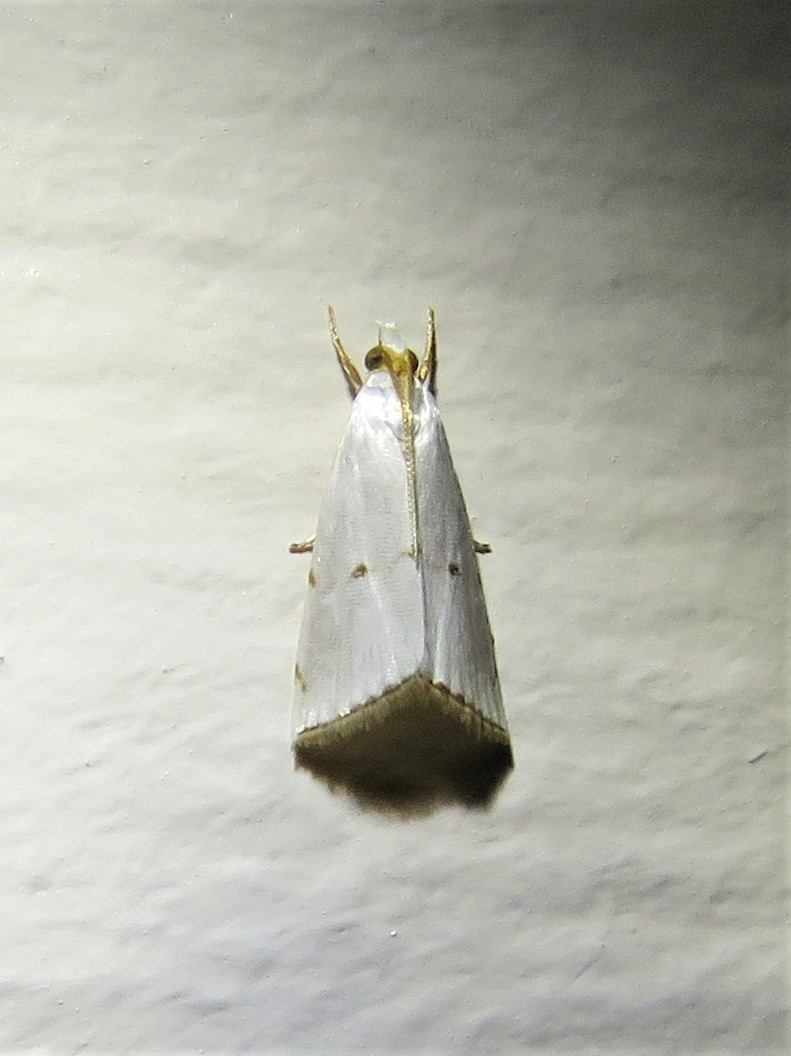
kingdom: Animalia
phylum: Arthropoda
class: Insecta
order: Lepidoptera
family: Crambidae
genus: Argyria
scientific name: Argyria pusillalis
